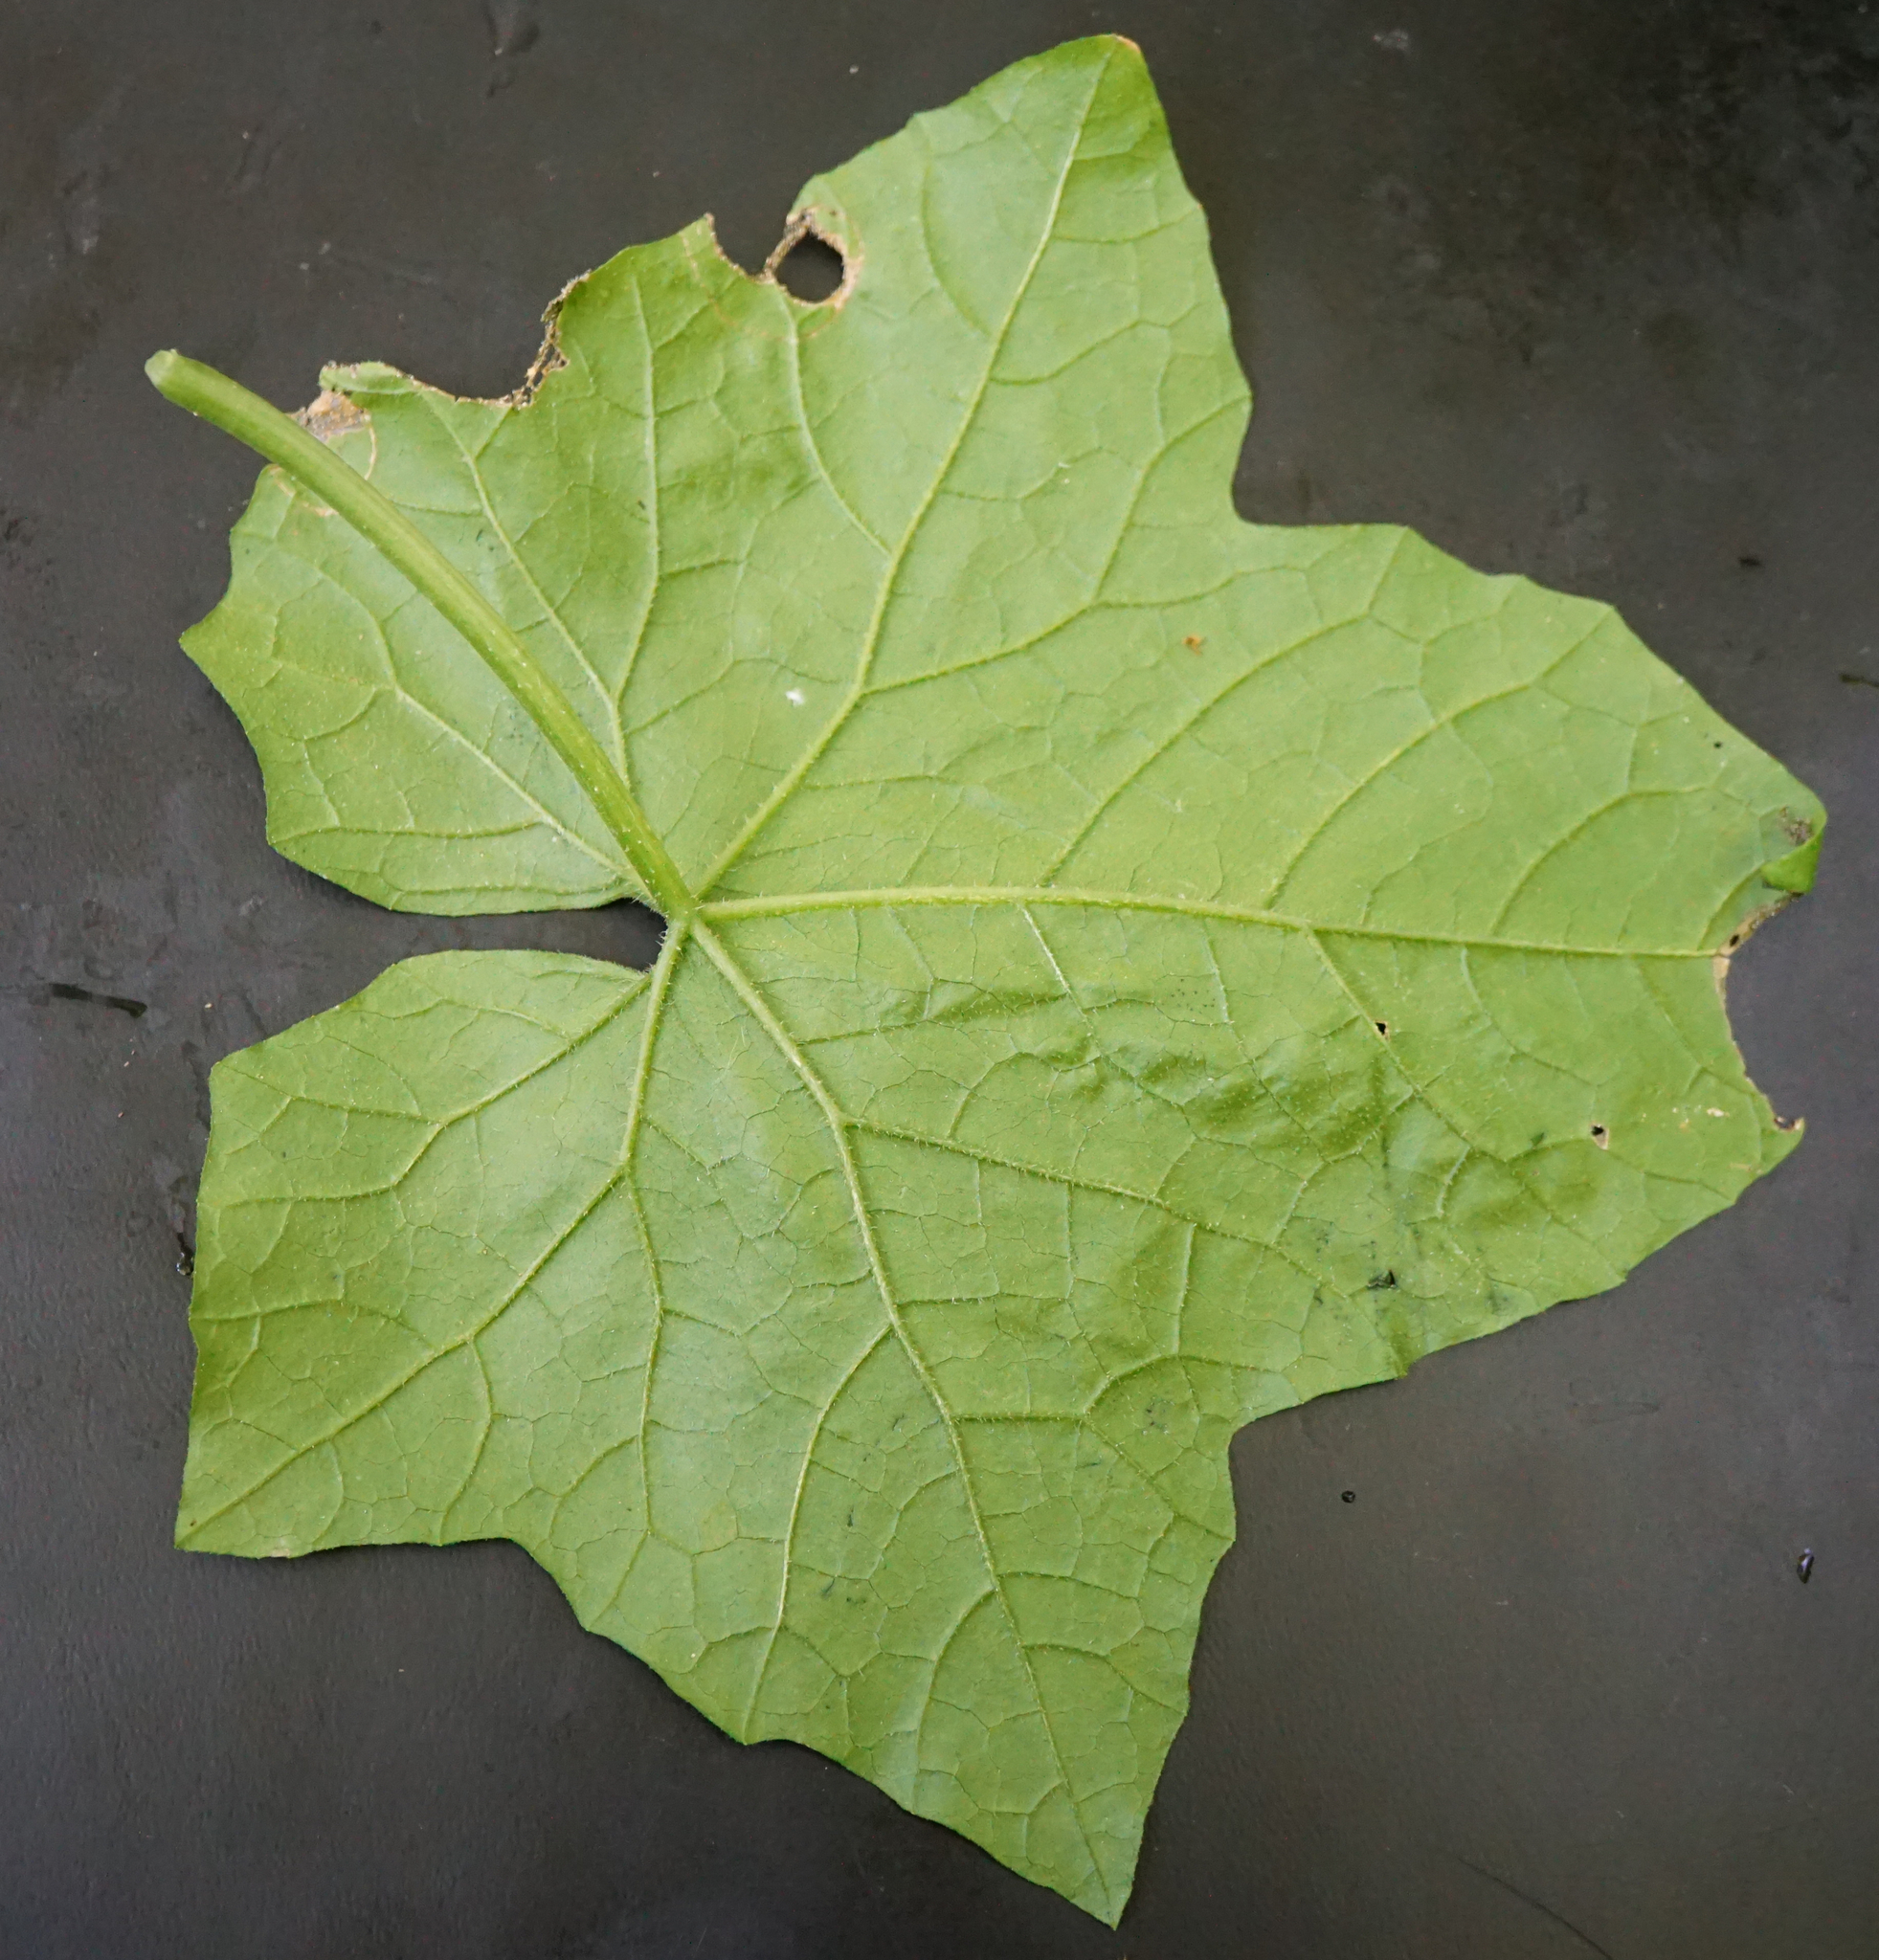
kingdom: Plantae
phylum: Tracheophyta
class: Magnoliopsida
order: Cucurbitales
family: Cucurbitaceae
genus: Bryonia
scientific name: Bryonia dioica
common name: White bryony
